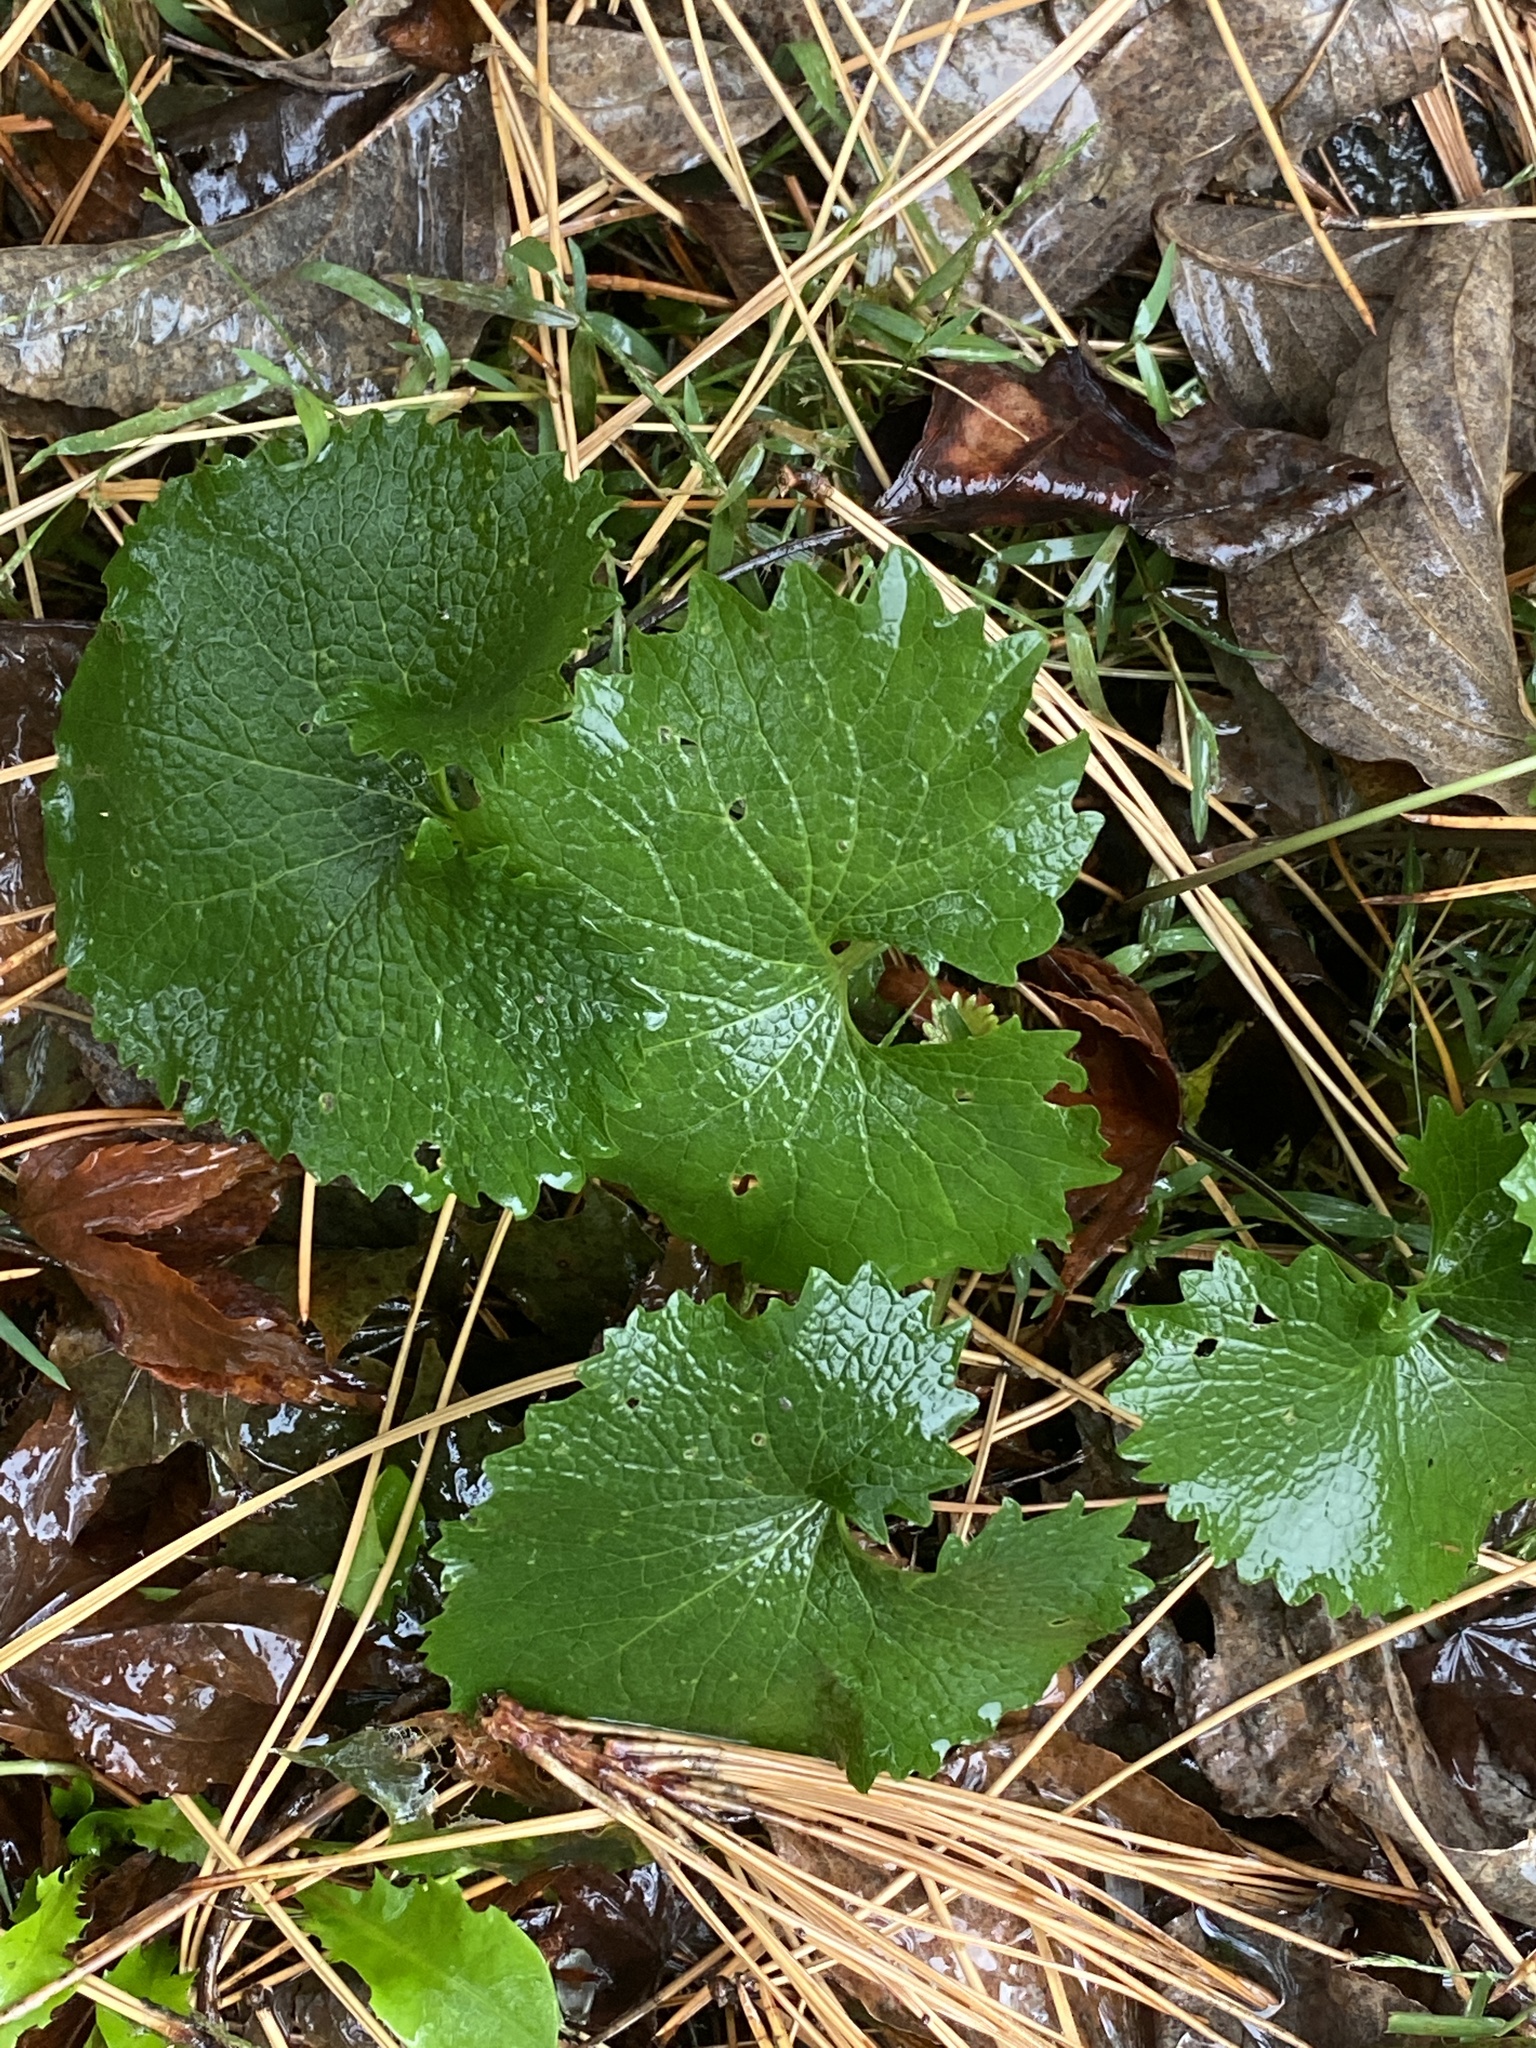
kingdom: Plantae
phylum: Tracheophyta
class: Magnoliopsida
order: Brassicales
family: Brassicaceae
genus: Alliaria
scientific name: Alliaria petiolata
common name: Garlic mustard
